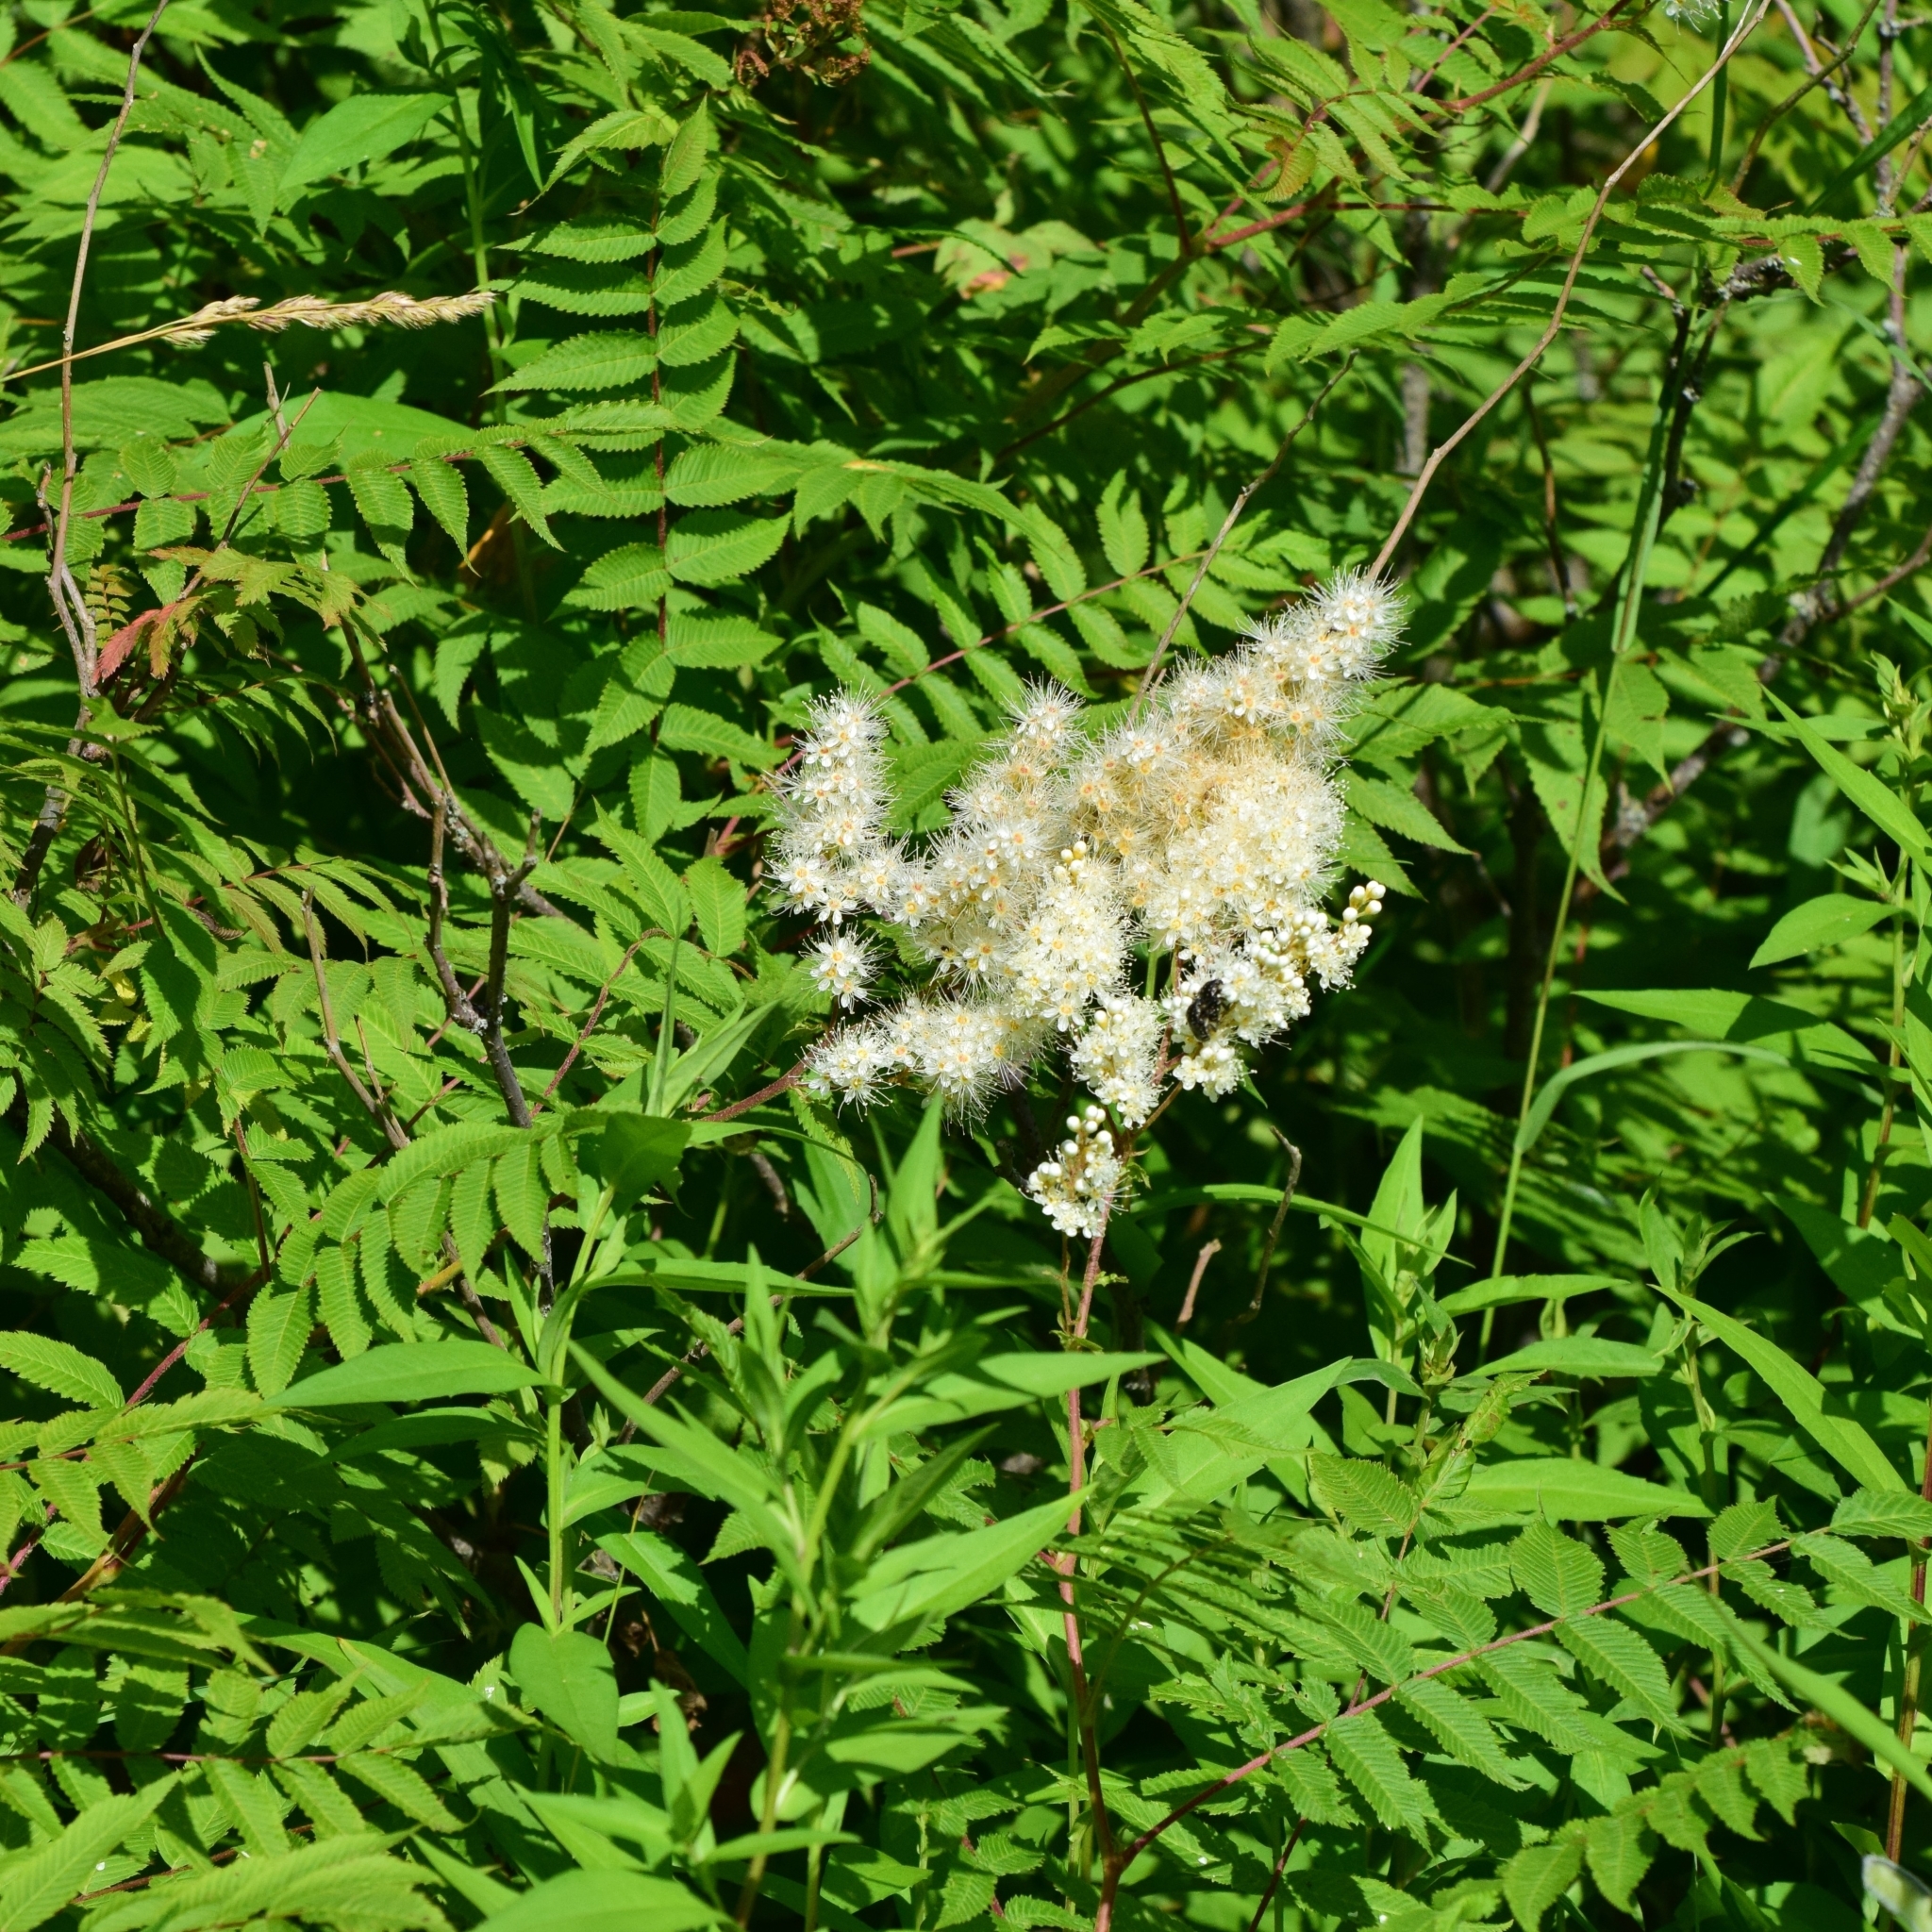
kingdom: Plantae
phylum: Tracheophyta
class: Magnoliopsida
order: Rosales
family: Rosaceae
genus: Sorbaria
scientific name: Sorbaria sorbifolia
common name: False spiraea
